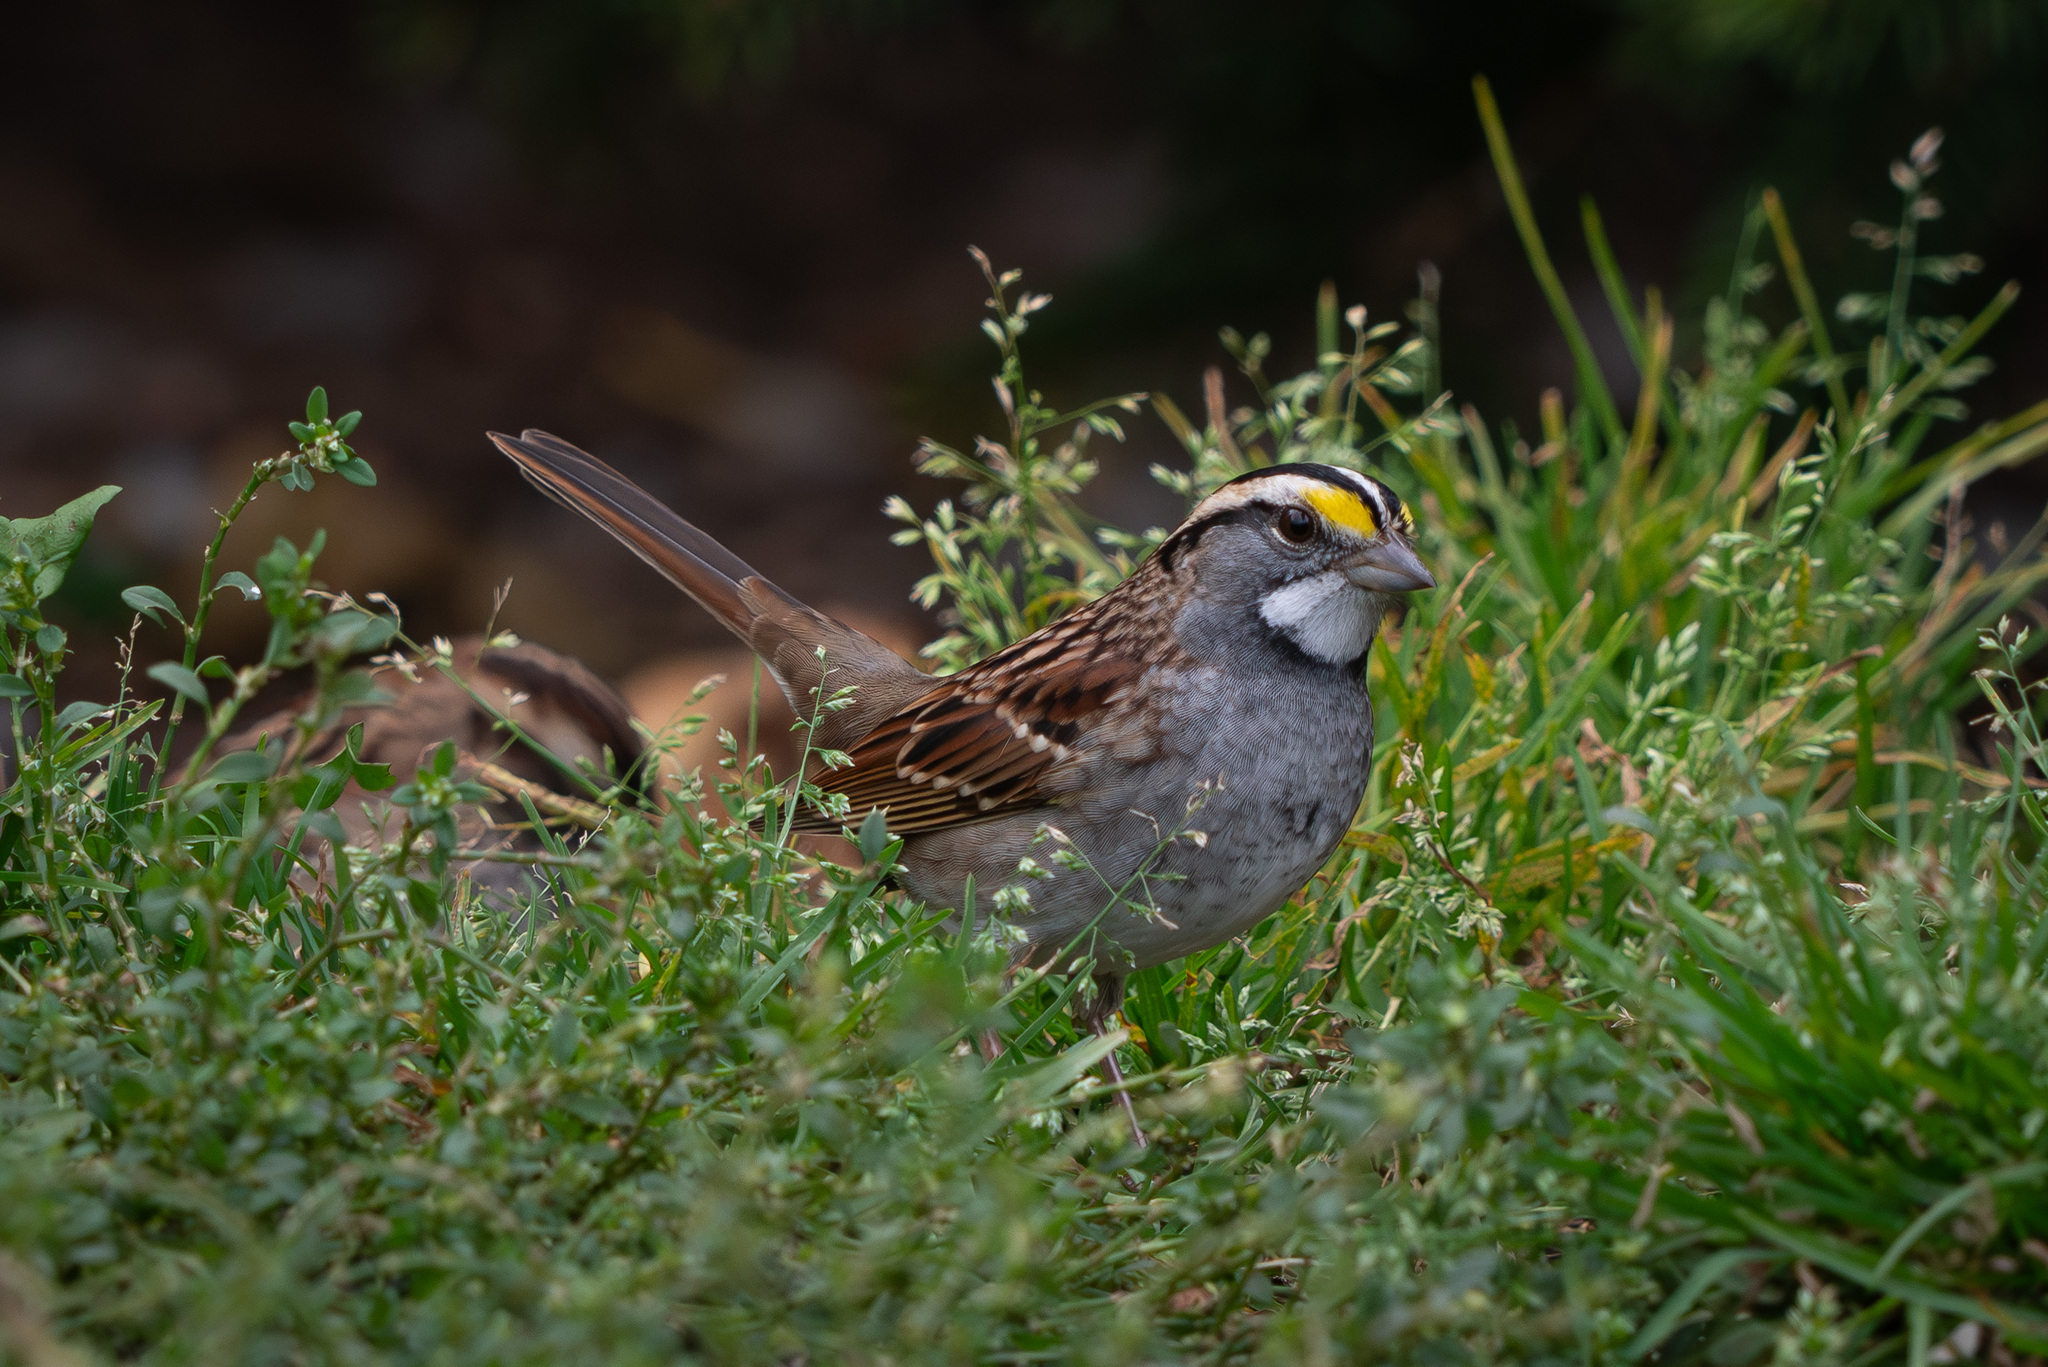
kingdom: Animalia
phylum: Chordata
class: Aves
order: Passeriformes
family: Passerellidae
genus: Zonotrichia
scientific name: Zonotrichia albicollis
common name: White-throated sparrow
